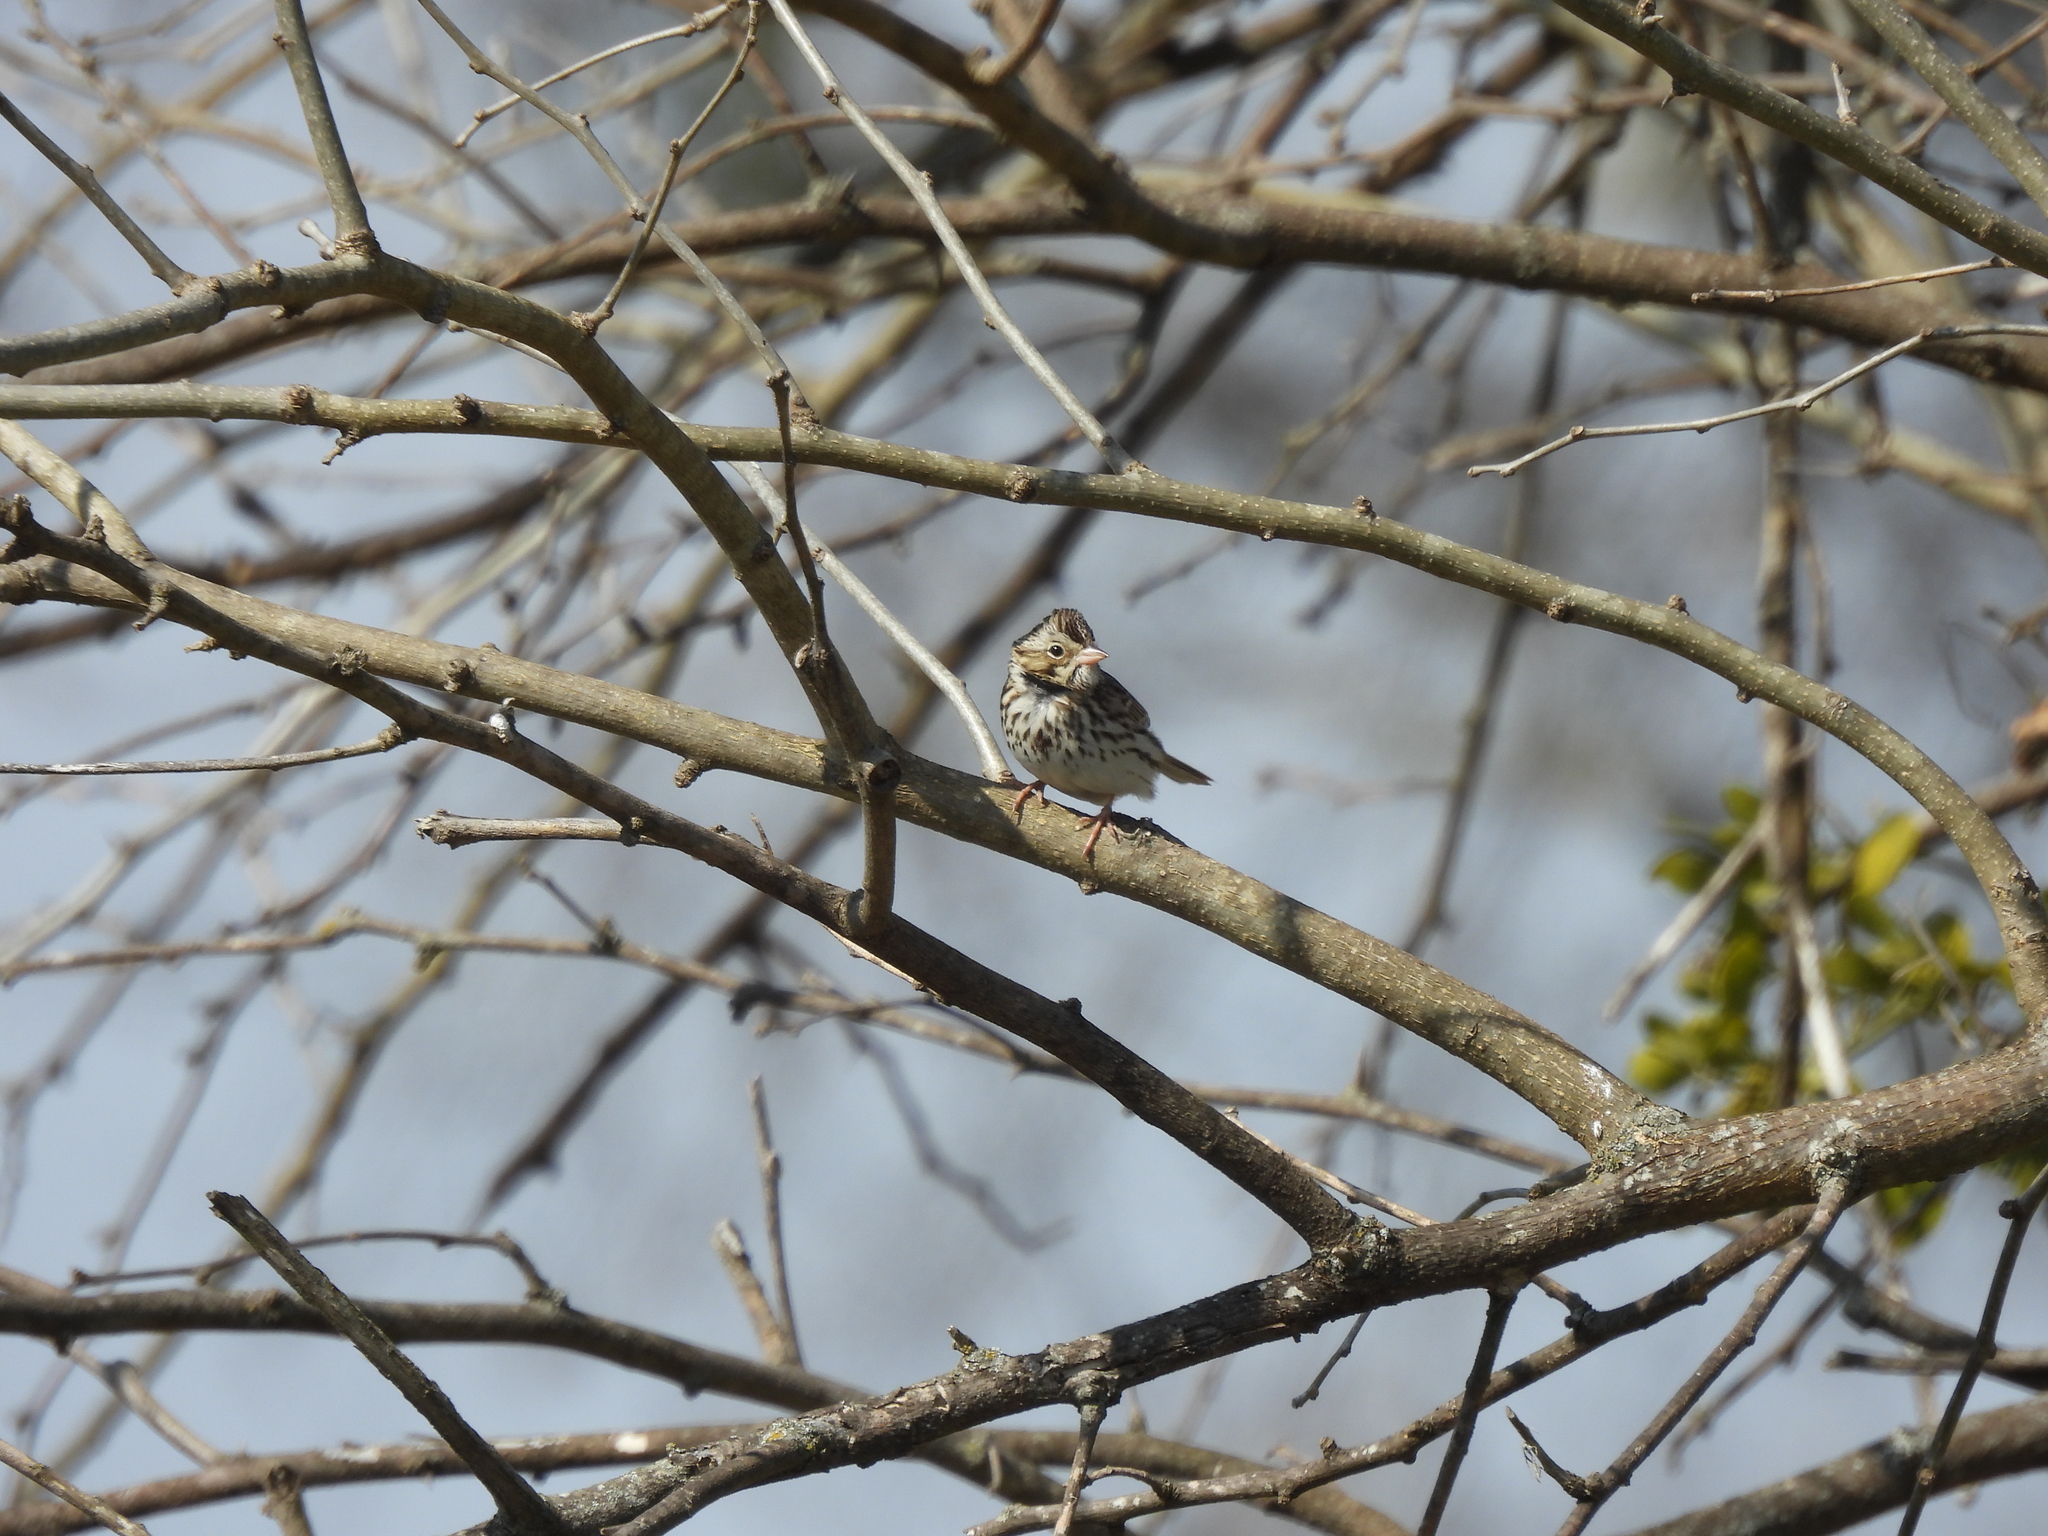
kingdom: Animalia
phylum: Chordata
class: Aves
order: Passeriformes
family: Passerellidae
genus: Passerculus
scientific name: Passerculus sandwichensis
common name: Savannah sparrow
